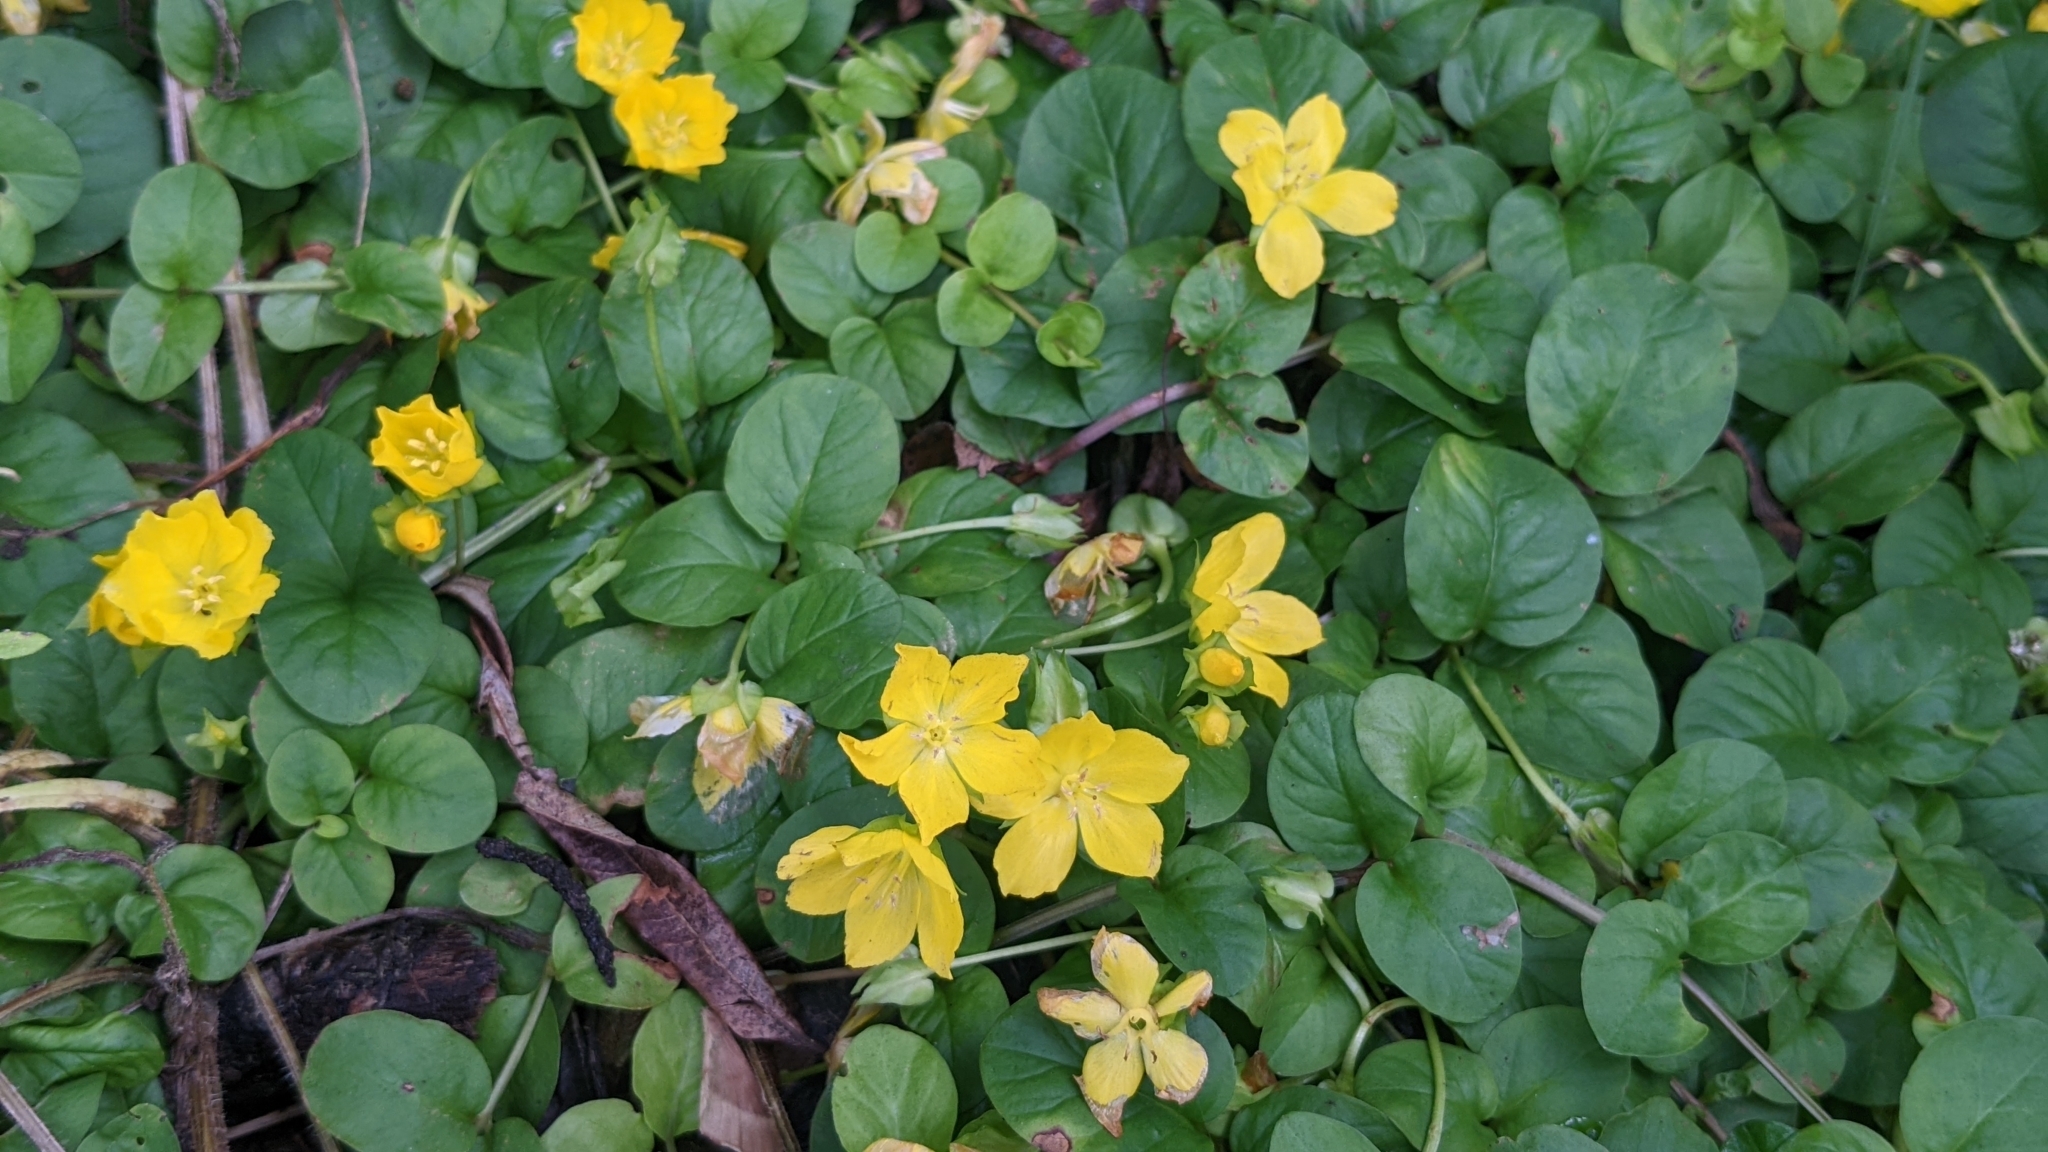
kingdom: Plantae
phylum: Tracheophyta
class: Magnoliopsida
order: Ericales
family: Primulaceae
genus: Lysimachia
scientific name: Lysimachia nummularia
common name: Moneywort
